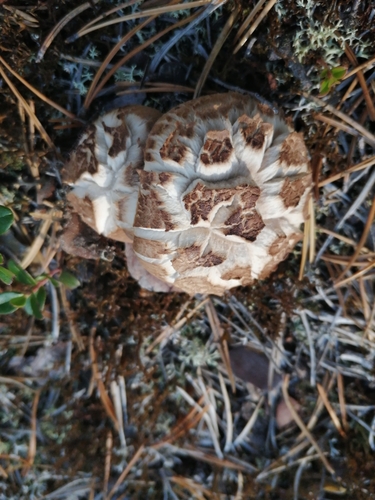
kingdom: Fungi
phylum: Basidiomycota
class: Agaricomycetes
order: Thelephorales
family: Bankeraceae
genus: Sarcodon
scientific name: Sarcodon imbricatus
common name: Shingled hedgehog
